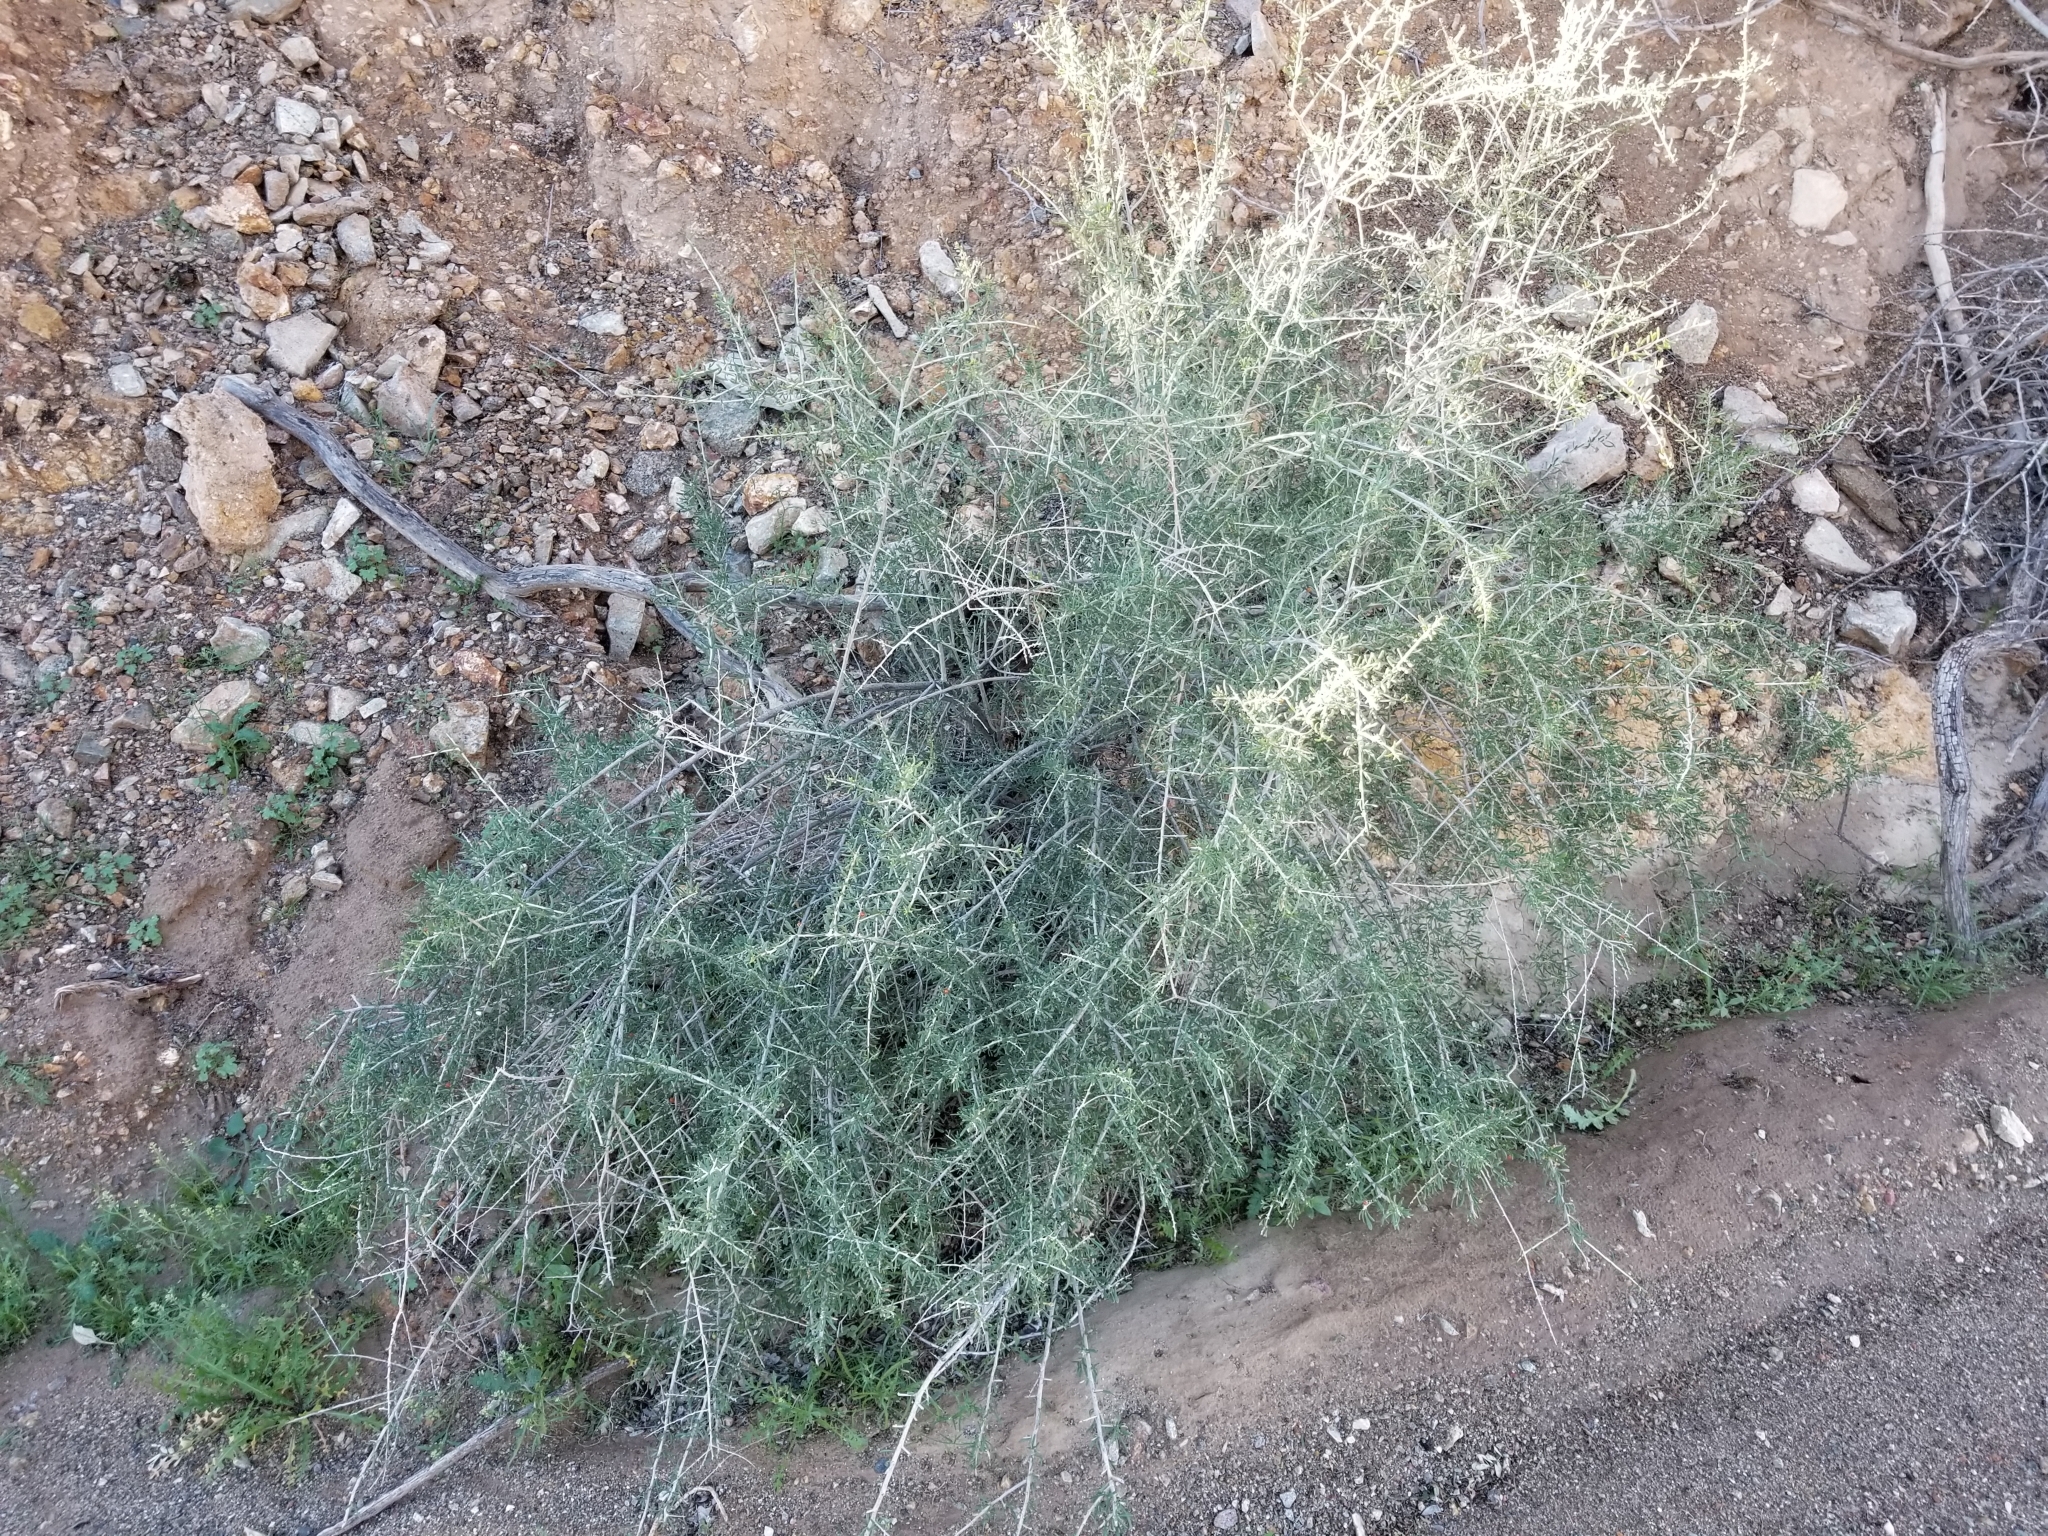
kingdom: Plantae
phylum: Tracheophyta
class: Magnoliopsida
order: Solanales
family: Solanaceae
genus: Lycium
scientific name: Lycium andersonii
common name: Water-jacket
